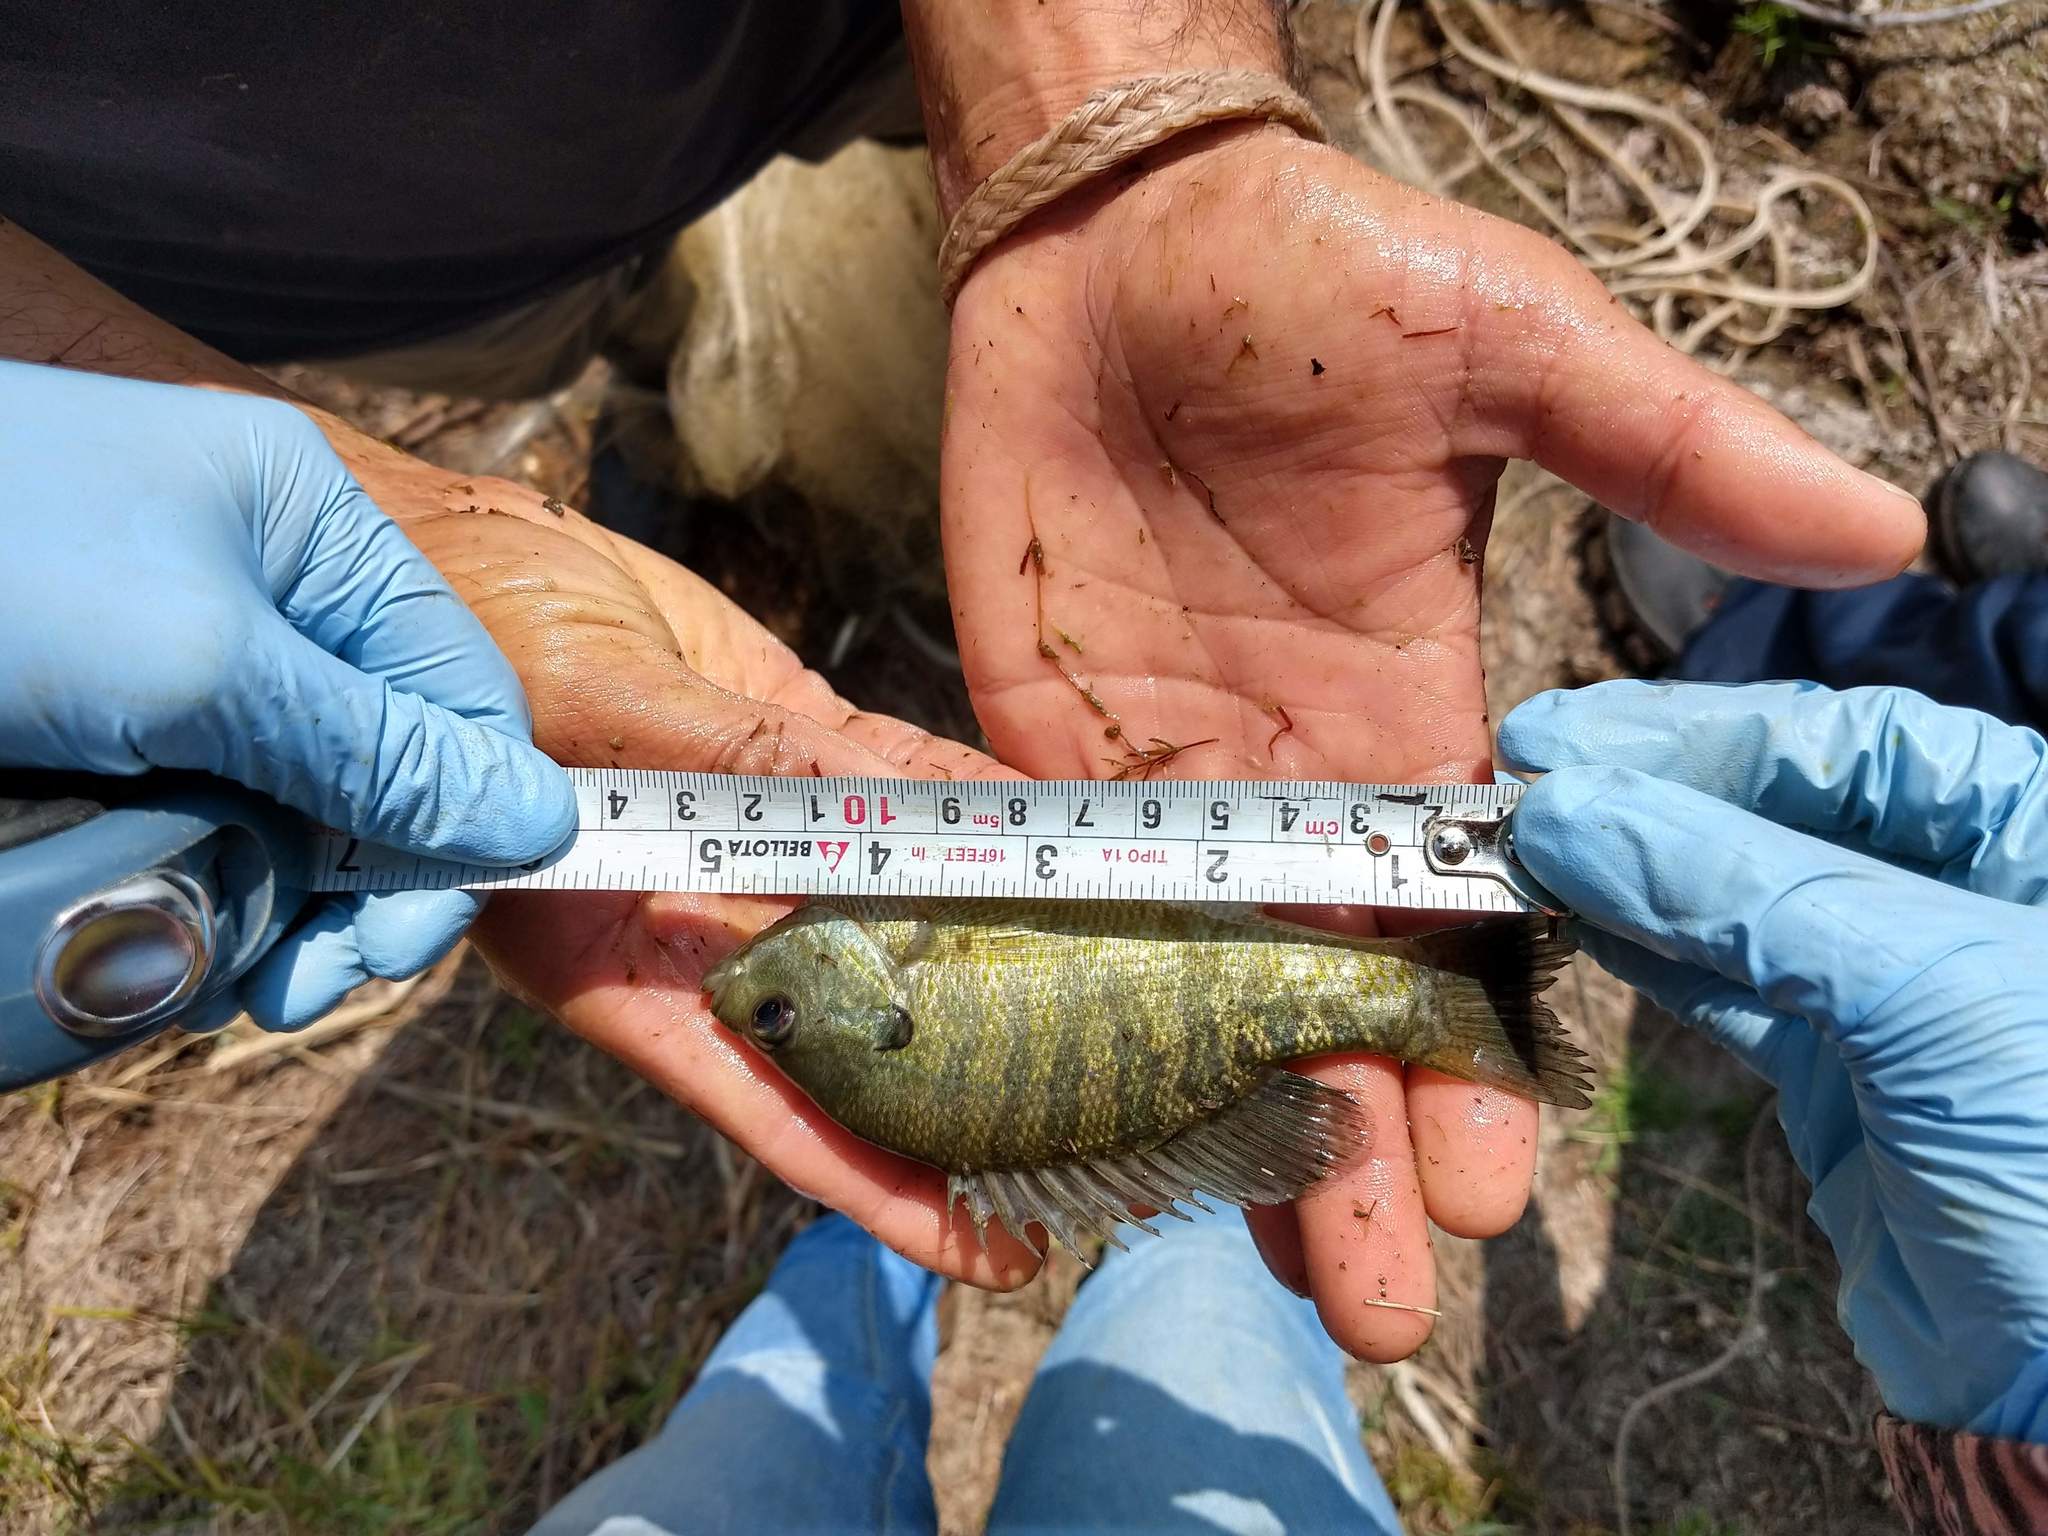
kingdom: Animalia
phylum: Chordata
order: Perciformes
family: Centrarchidae
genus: Lepomis
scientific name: Lepomis macrochirus
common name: Bluegill
